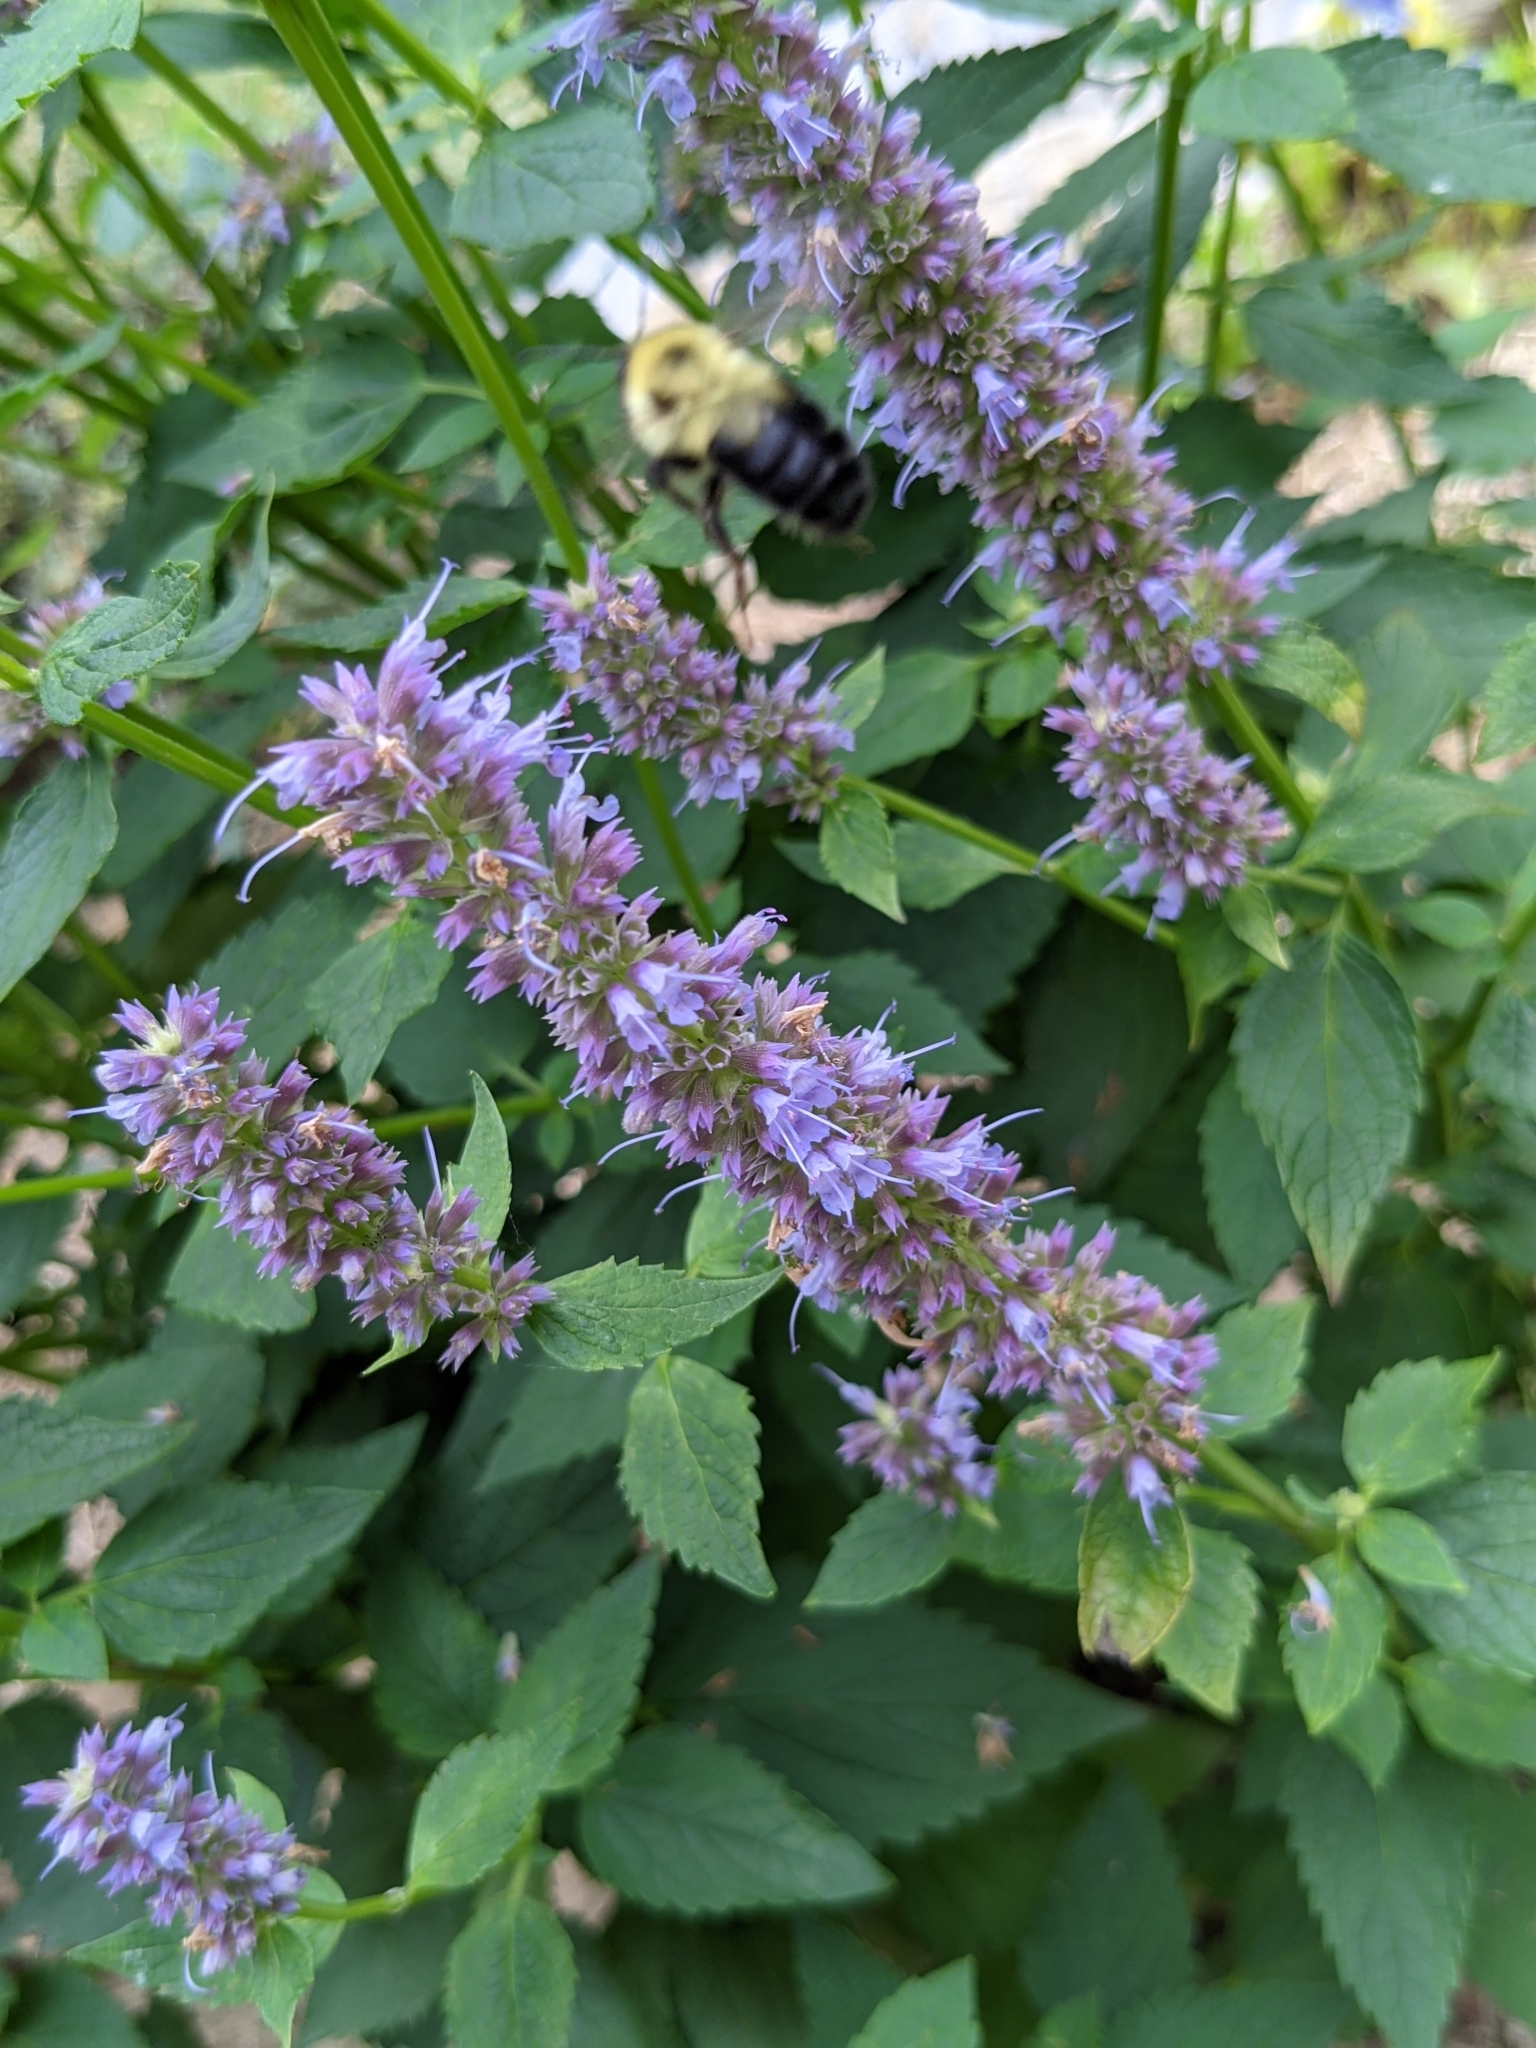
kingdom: Animalia
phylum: Arthropoda
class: Insecta
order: Hymenoptera
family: Apidae
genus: Bombus
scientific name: Bombus bimaculatus
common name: Two-spotted bumble bee
